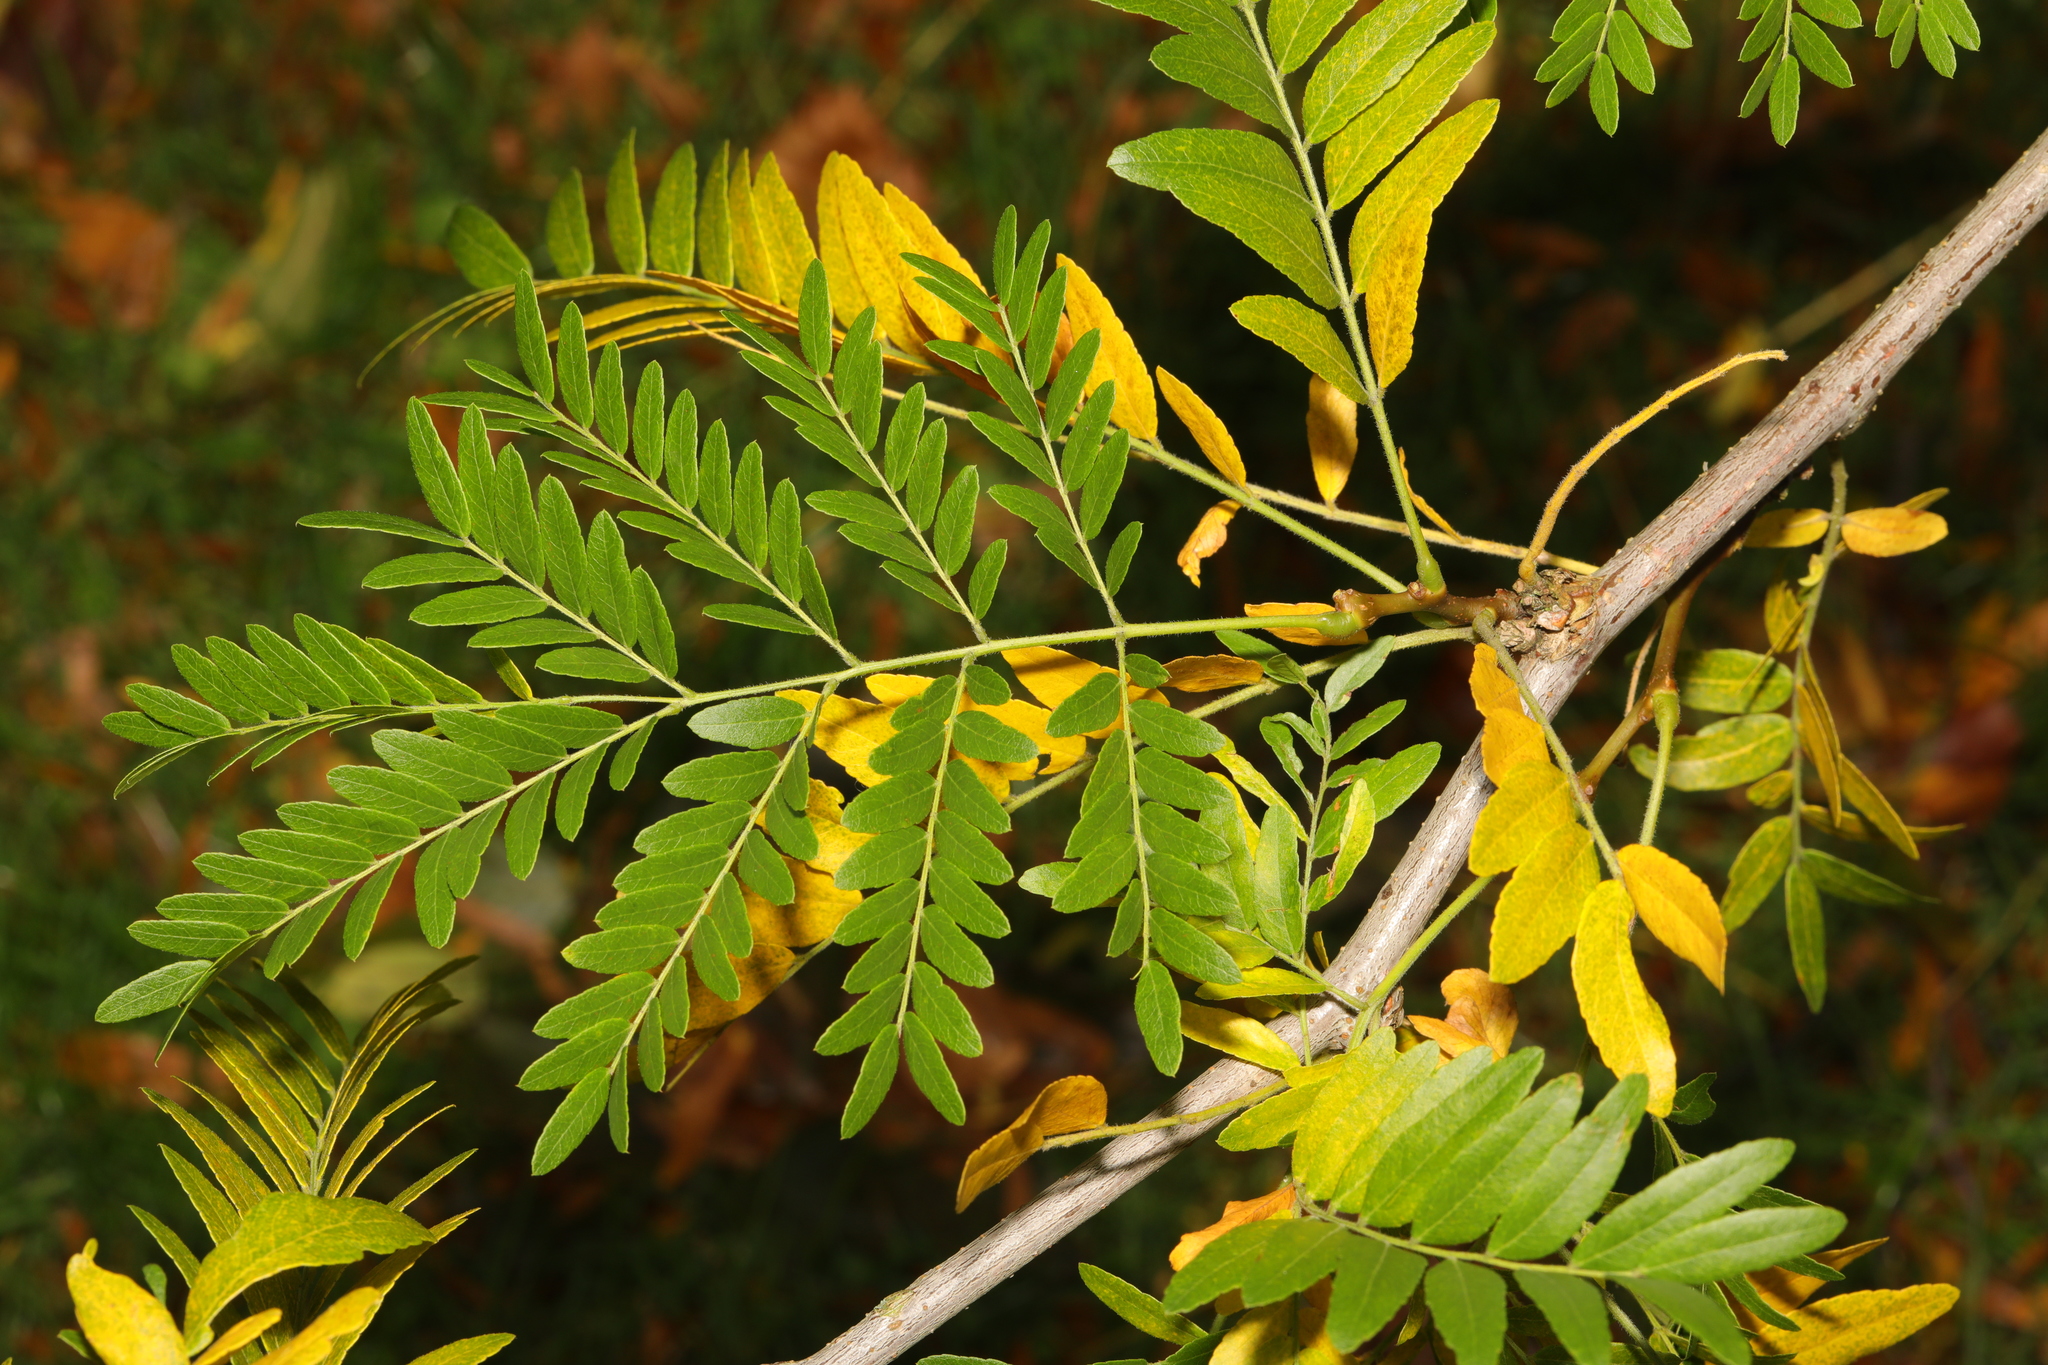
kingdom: Plantae
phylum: Tracheophyta
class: Magnoliopsida
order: Fabales
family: Fabaceae
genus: Gleditsia
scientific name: Gleditsia triacanthos
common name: Common honeylocust
